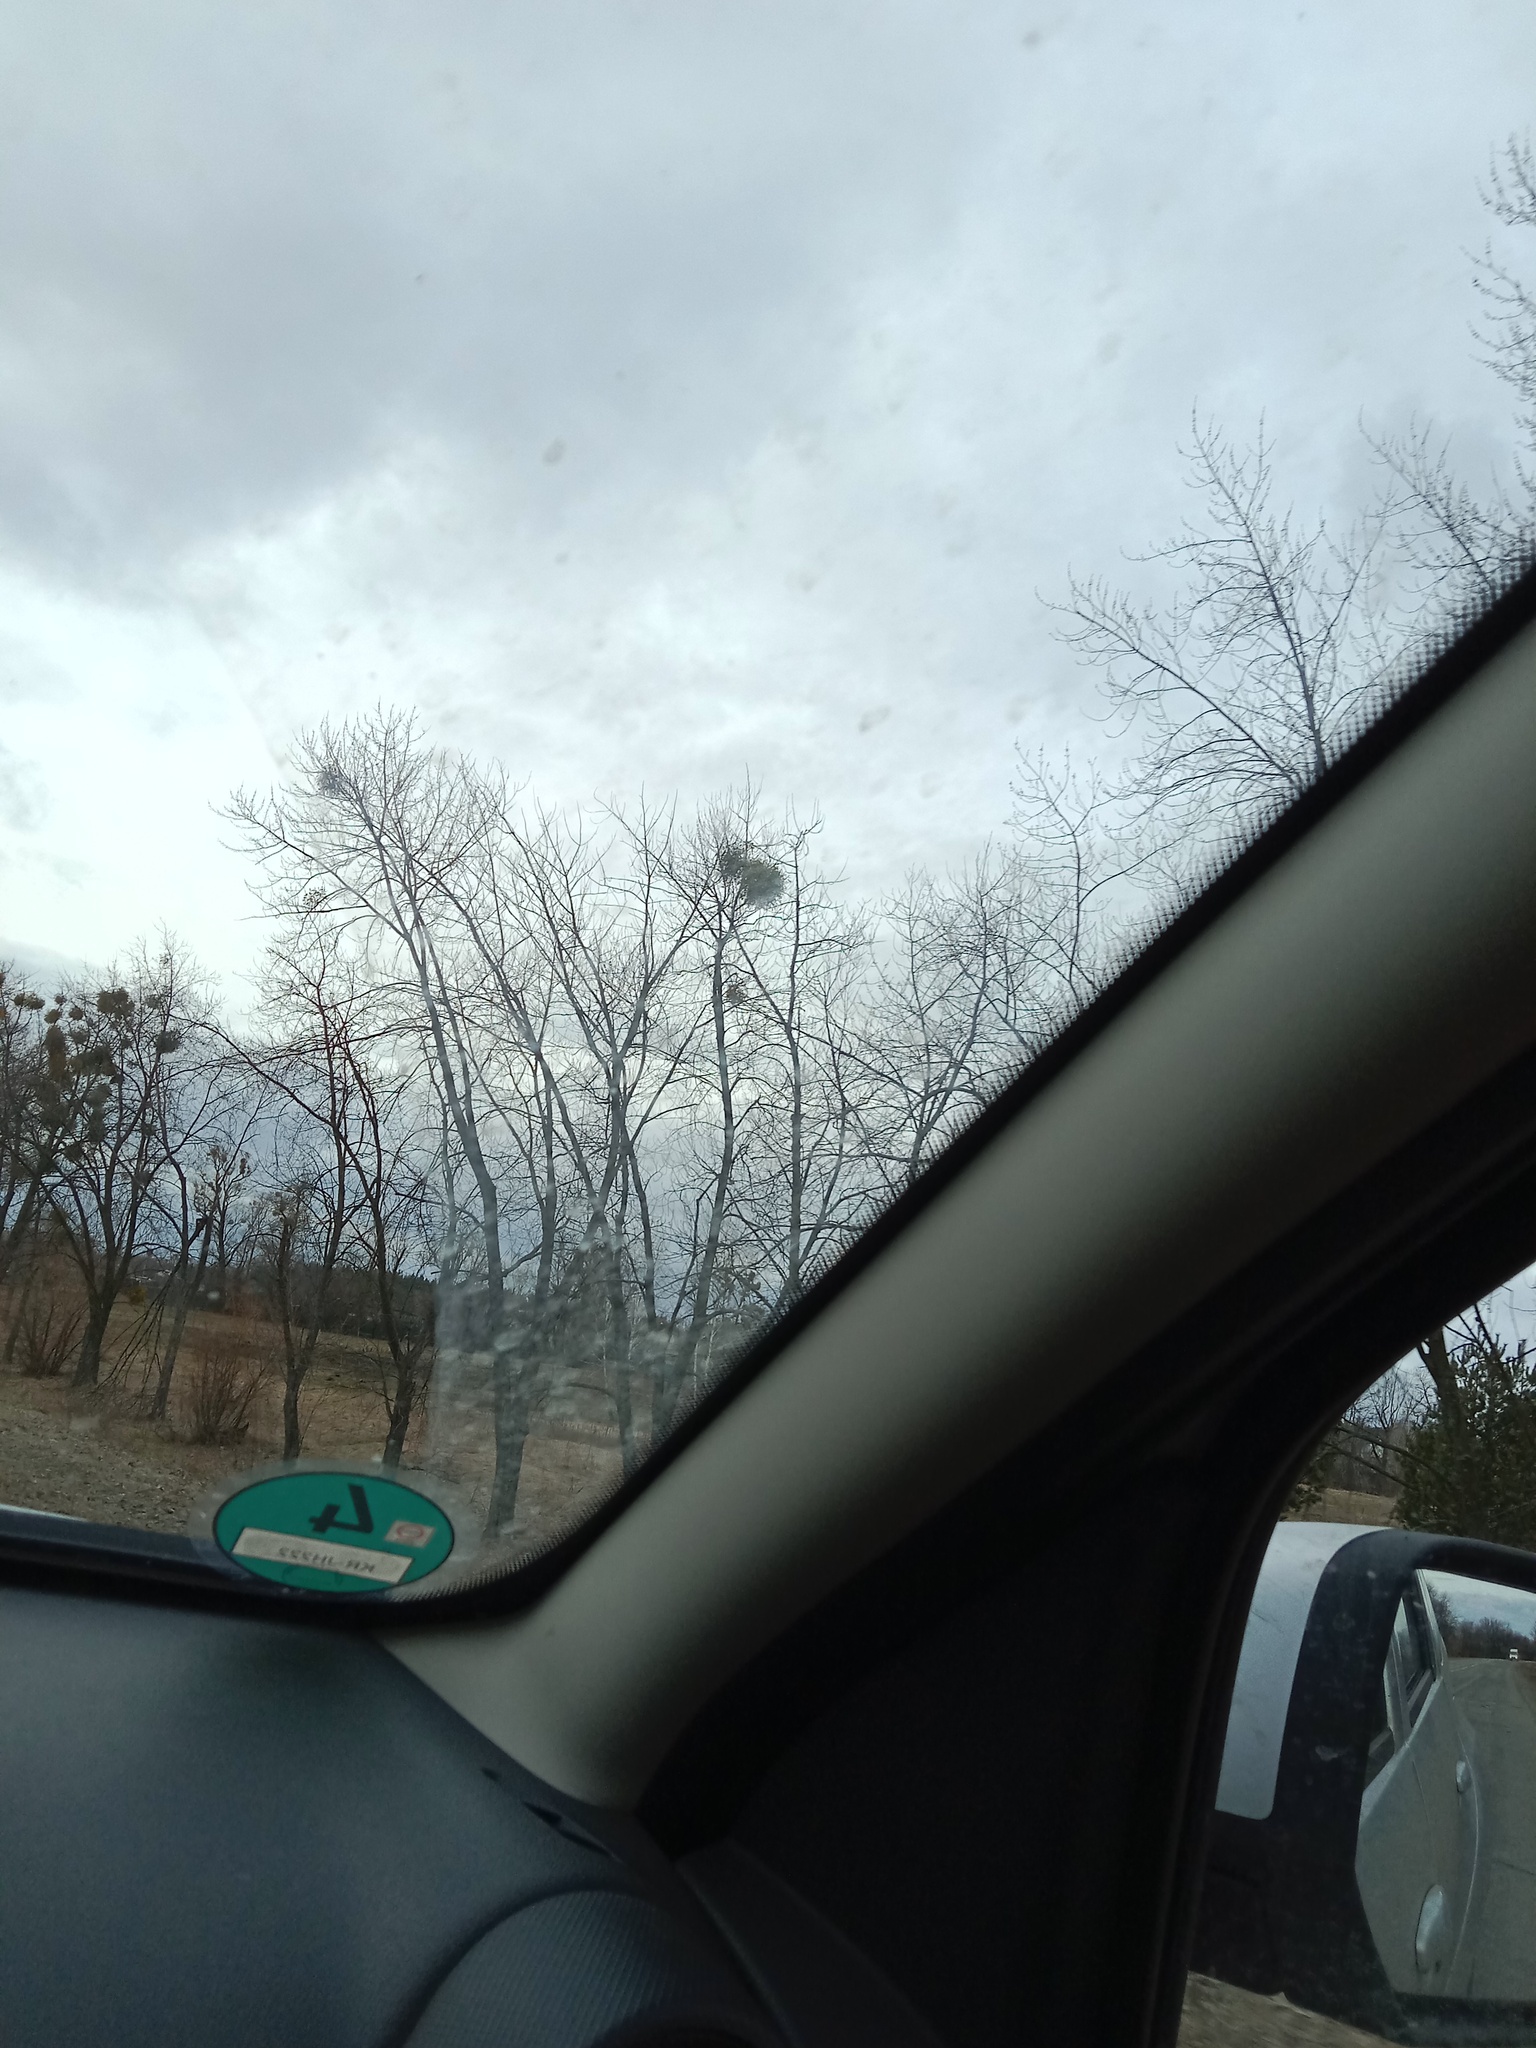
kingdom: Plantae
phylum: Tracheophyta
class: Magnoliopsida
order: Santalales
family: Viscaceae
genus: Viscum
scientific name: Viscum album
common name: Mistletoe
